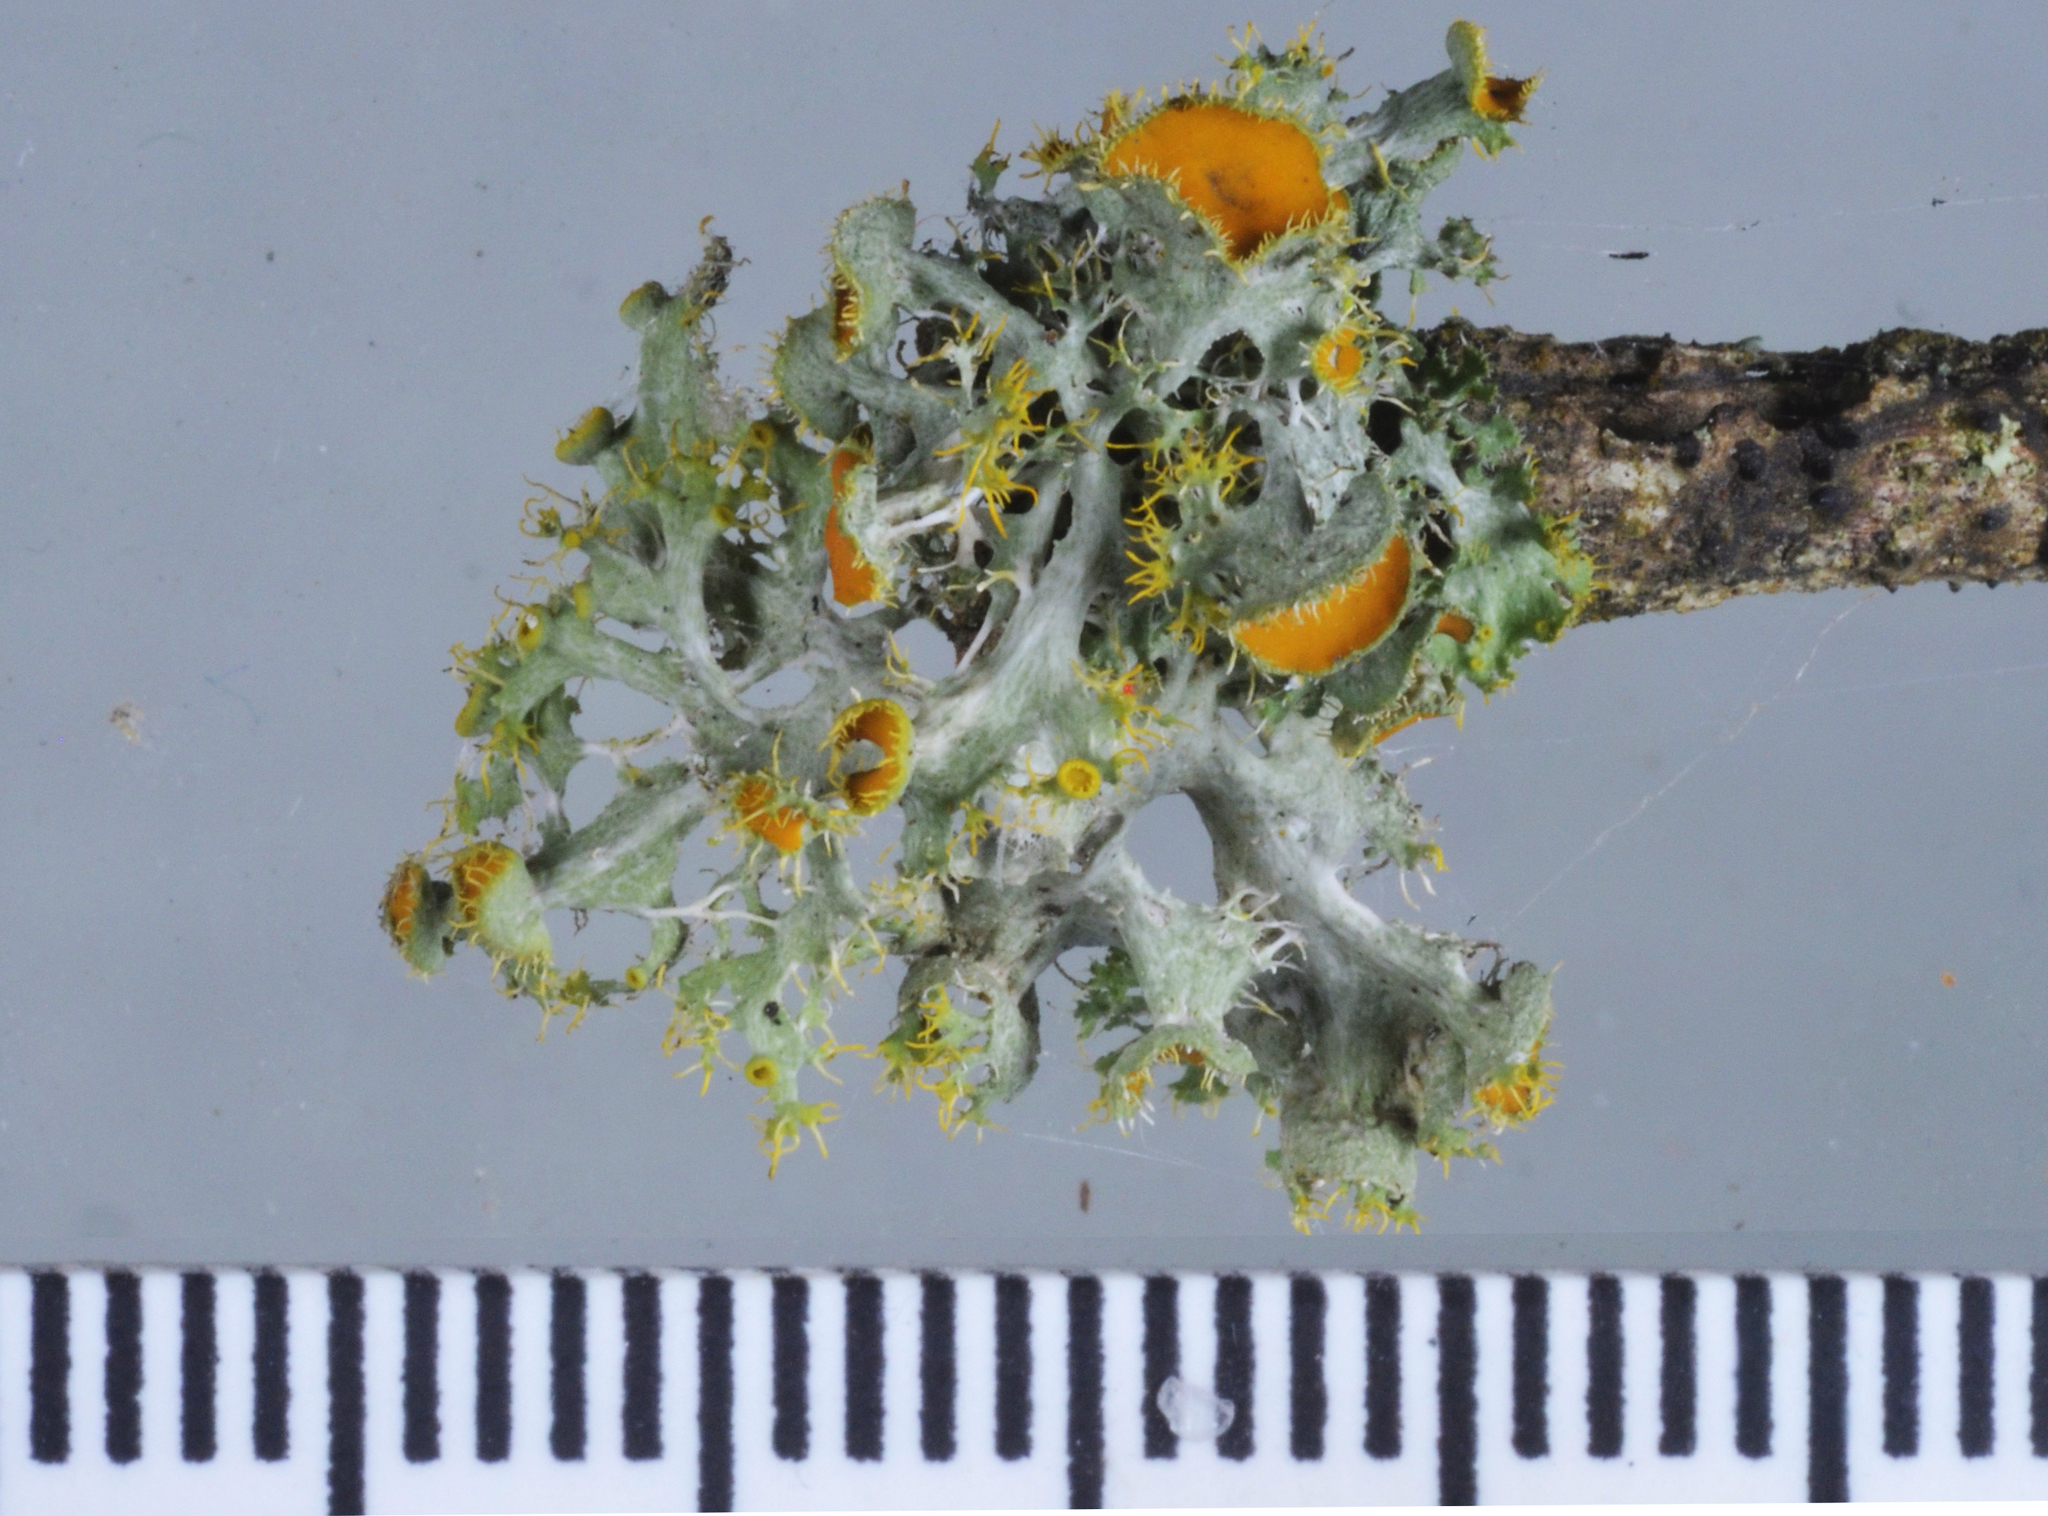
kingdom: Fungi
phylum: Ascomycota
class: Lecanoromycetes
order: Teloschistales
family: Teloschistaceae
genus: Niorma
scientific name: Niorma chrysophthalma
